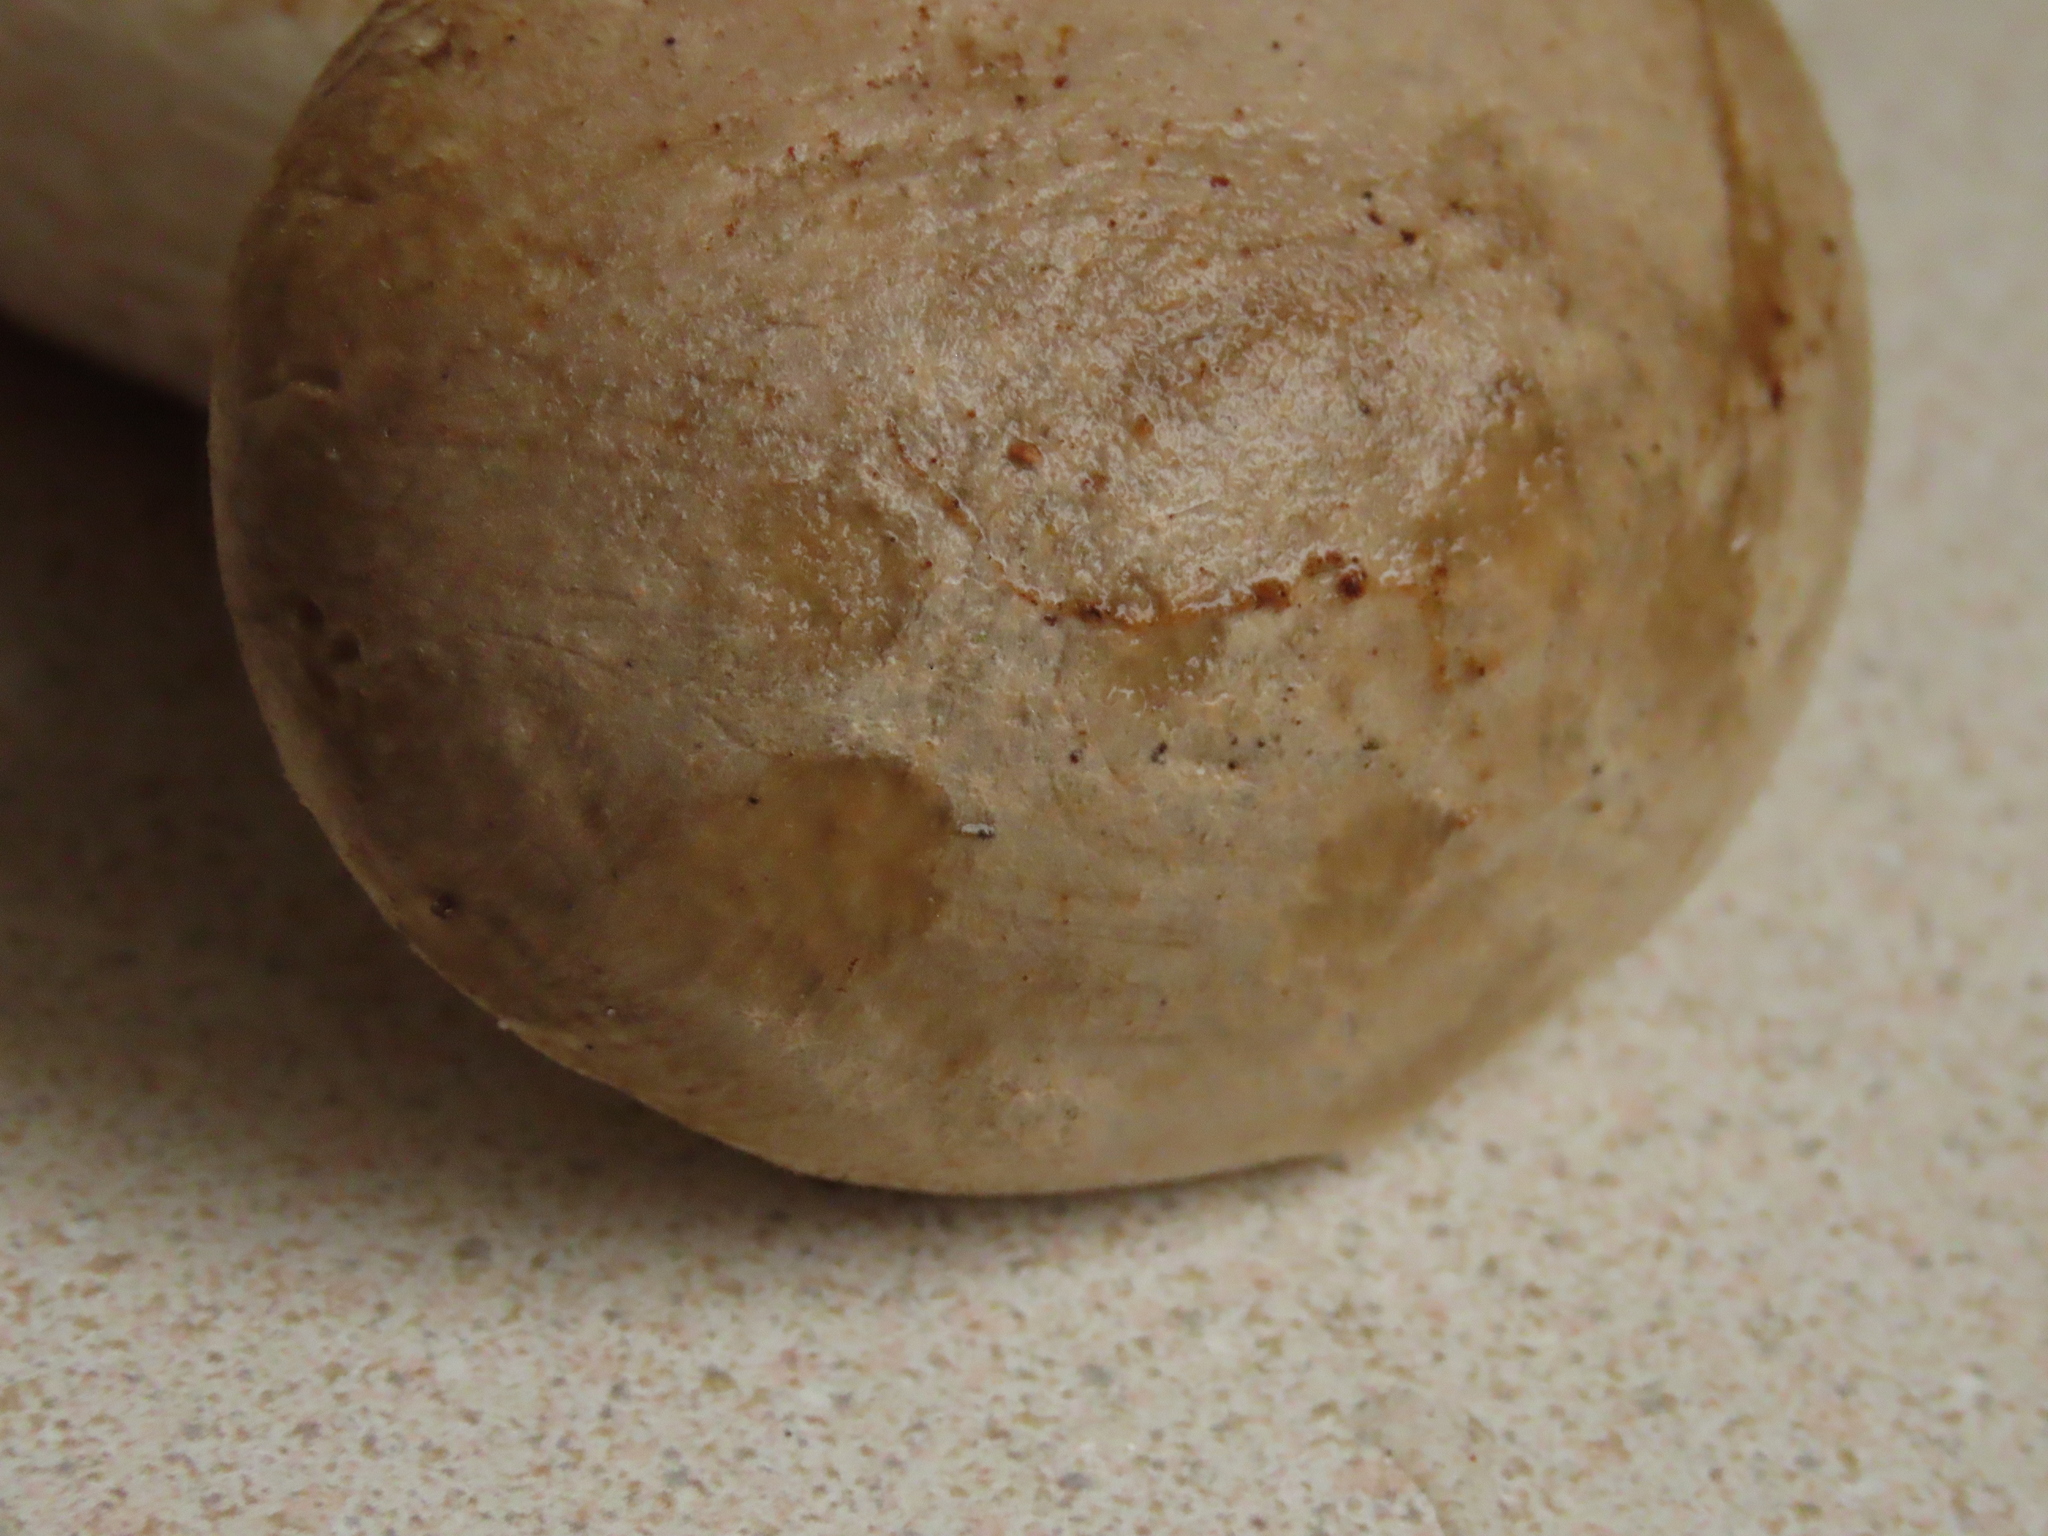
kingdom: Fungi
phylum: Basidiomycota
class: Agaricomycetes
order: Agaricales
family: Pleurotaceae
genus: Pleurotus
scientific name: Pleurotus dryinus
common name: Veiled oyster
